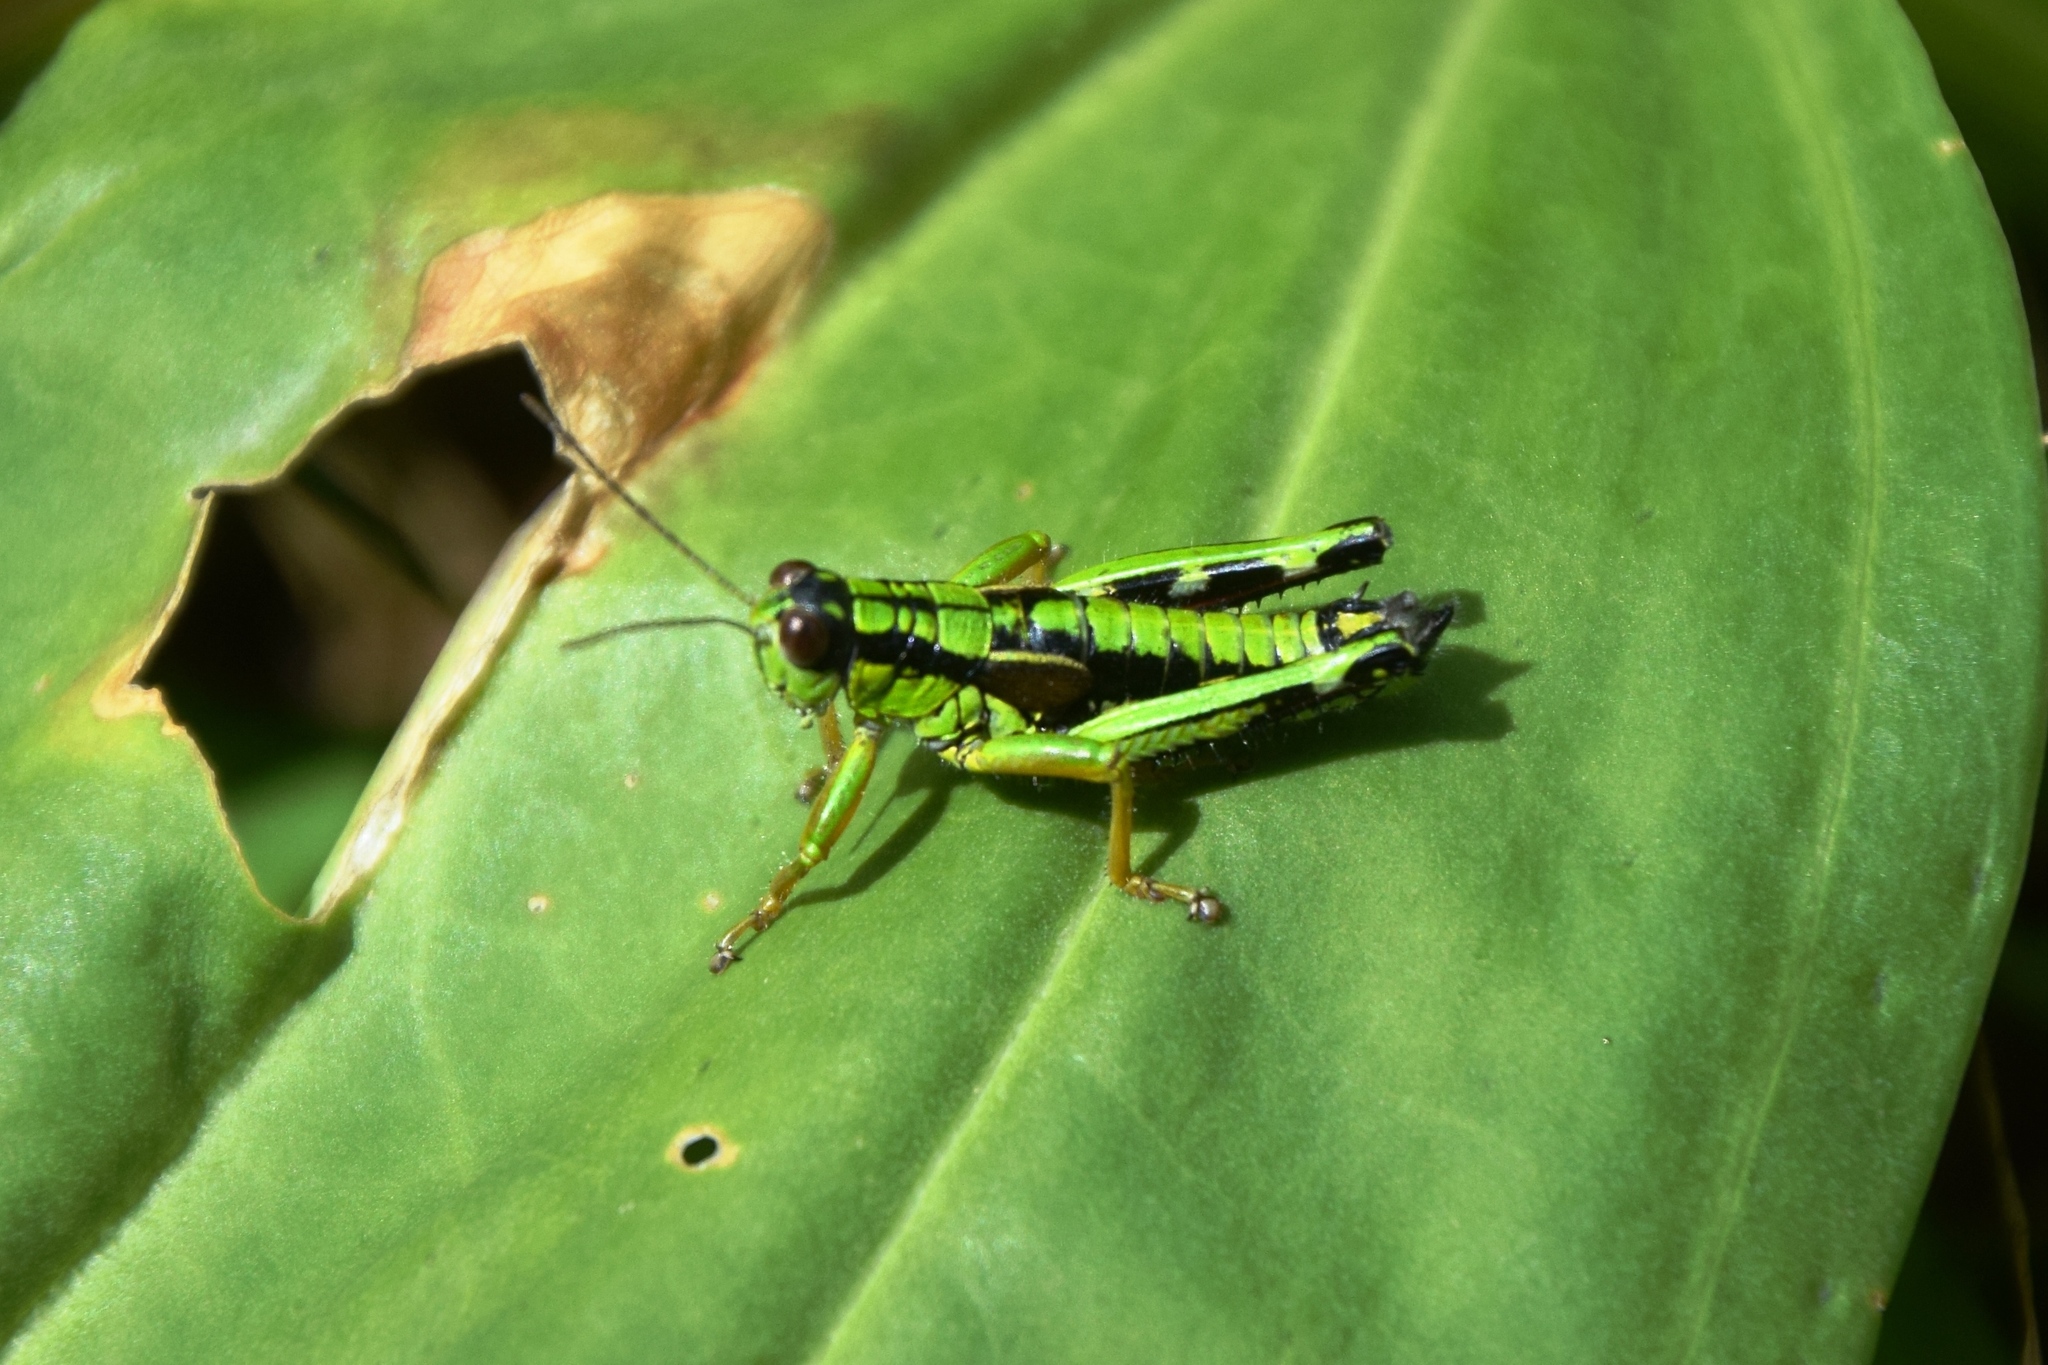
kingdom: Animalia
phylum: Arthropoda
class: Insecta
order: Orthoptera
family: Acrididae
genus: Miramella
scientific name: Miramella alpina
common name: Green mountain grasshopper
